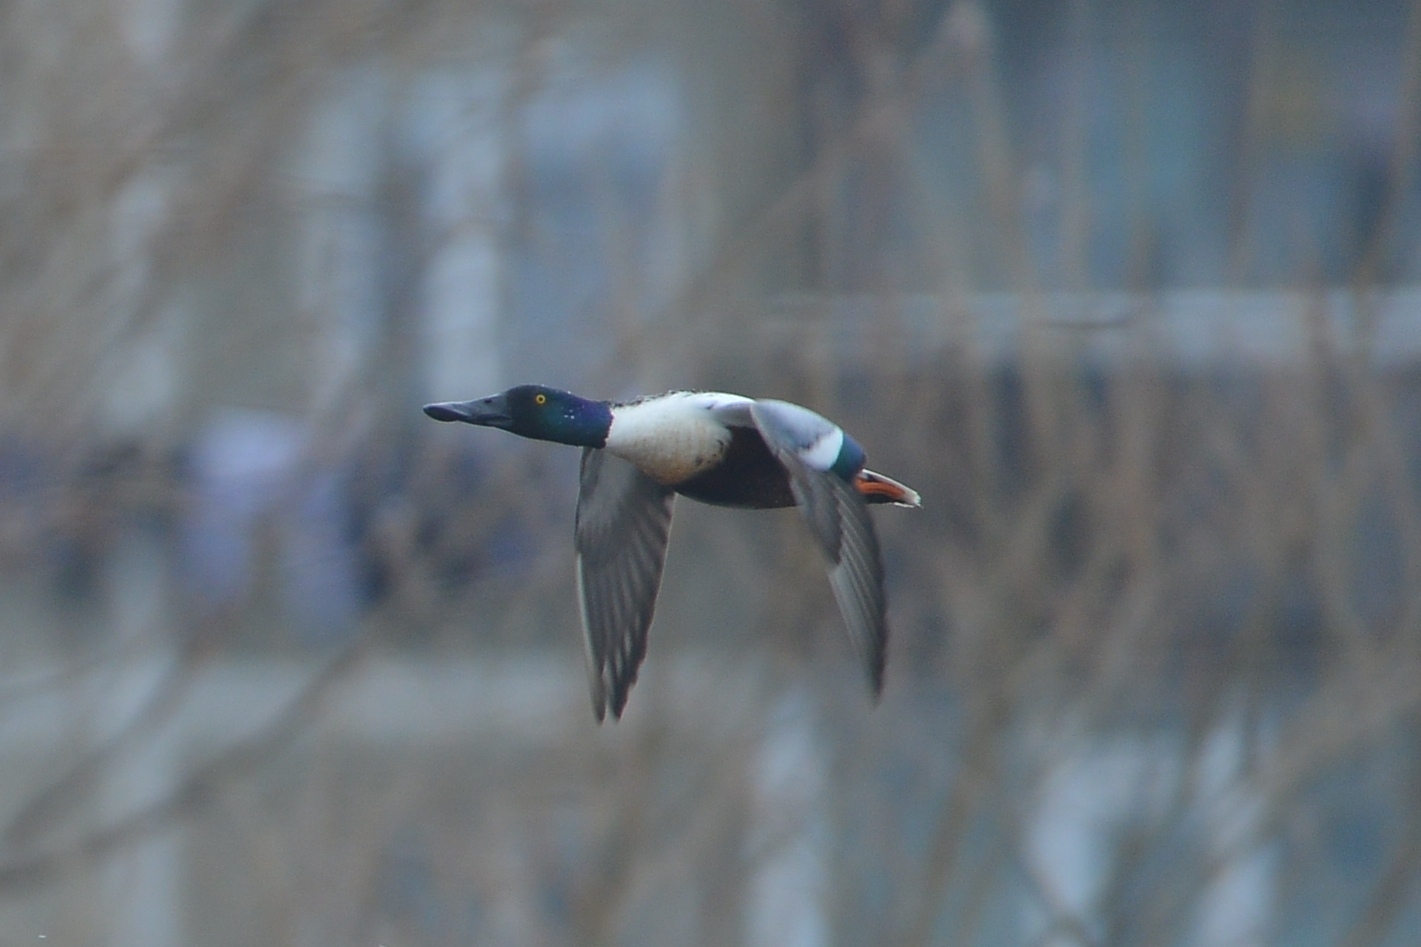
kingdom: Animalia
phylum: Chordata
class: Aves
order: Anseriformes
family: Anatidae
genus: Spatula
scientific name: Spatula clypeata
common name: Northern shoveler
